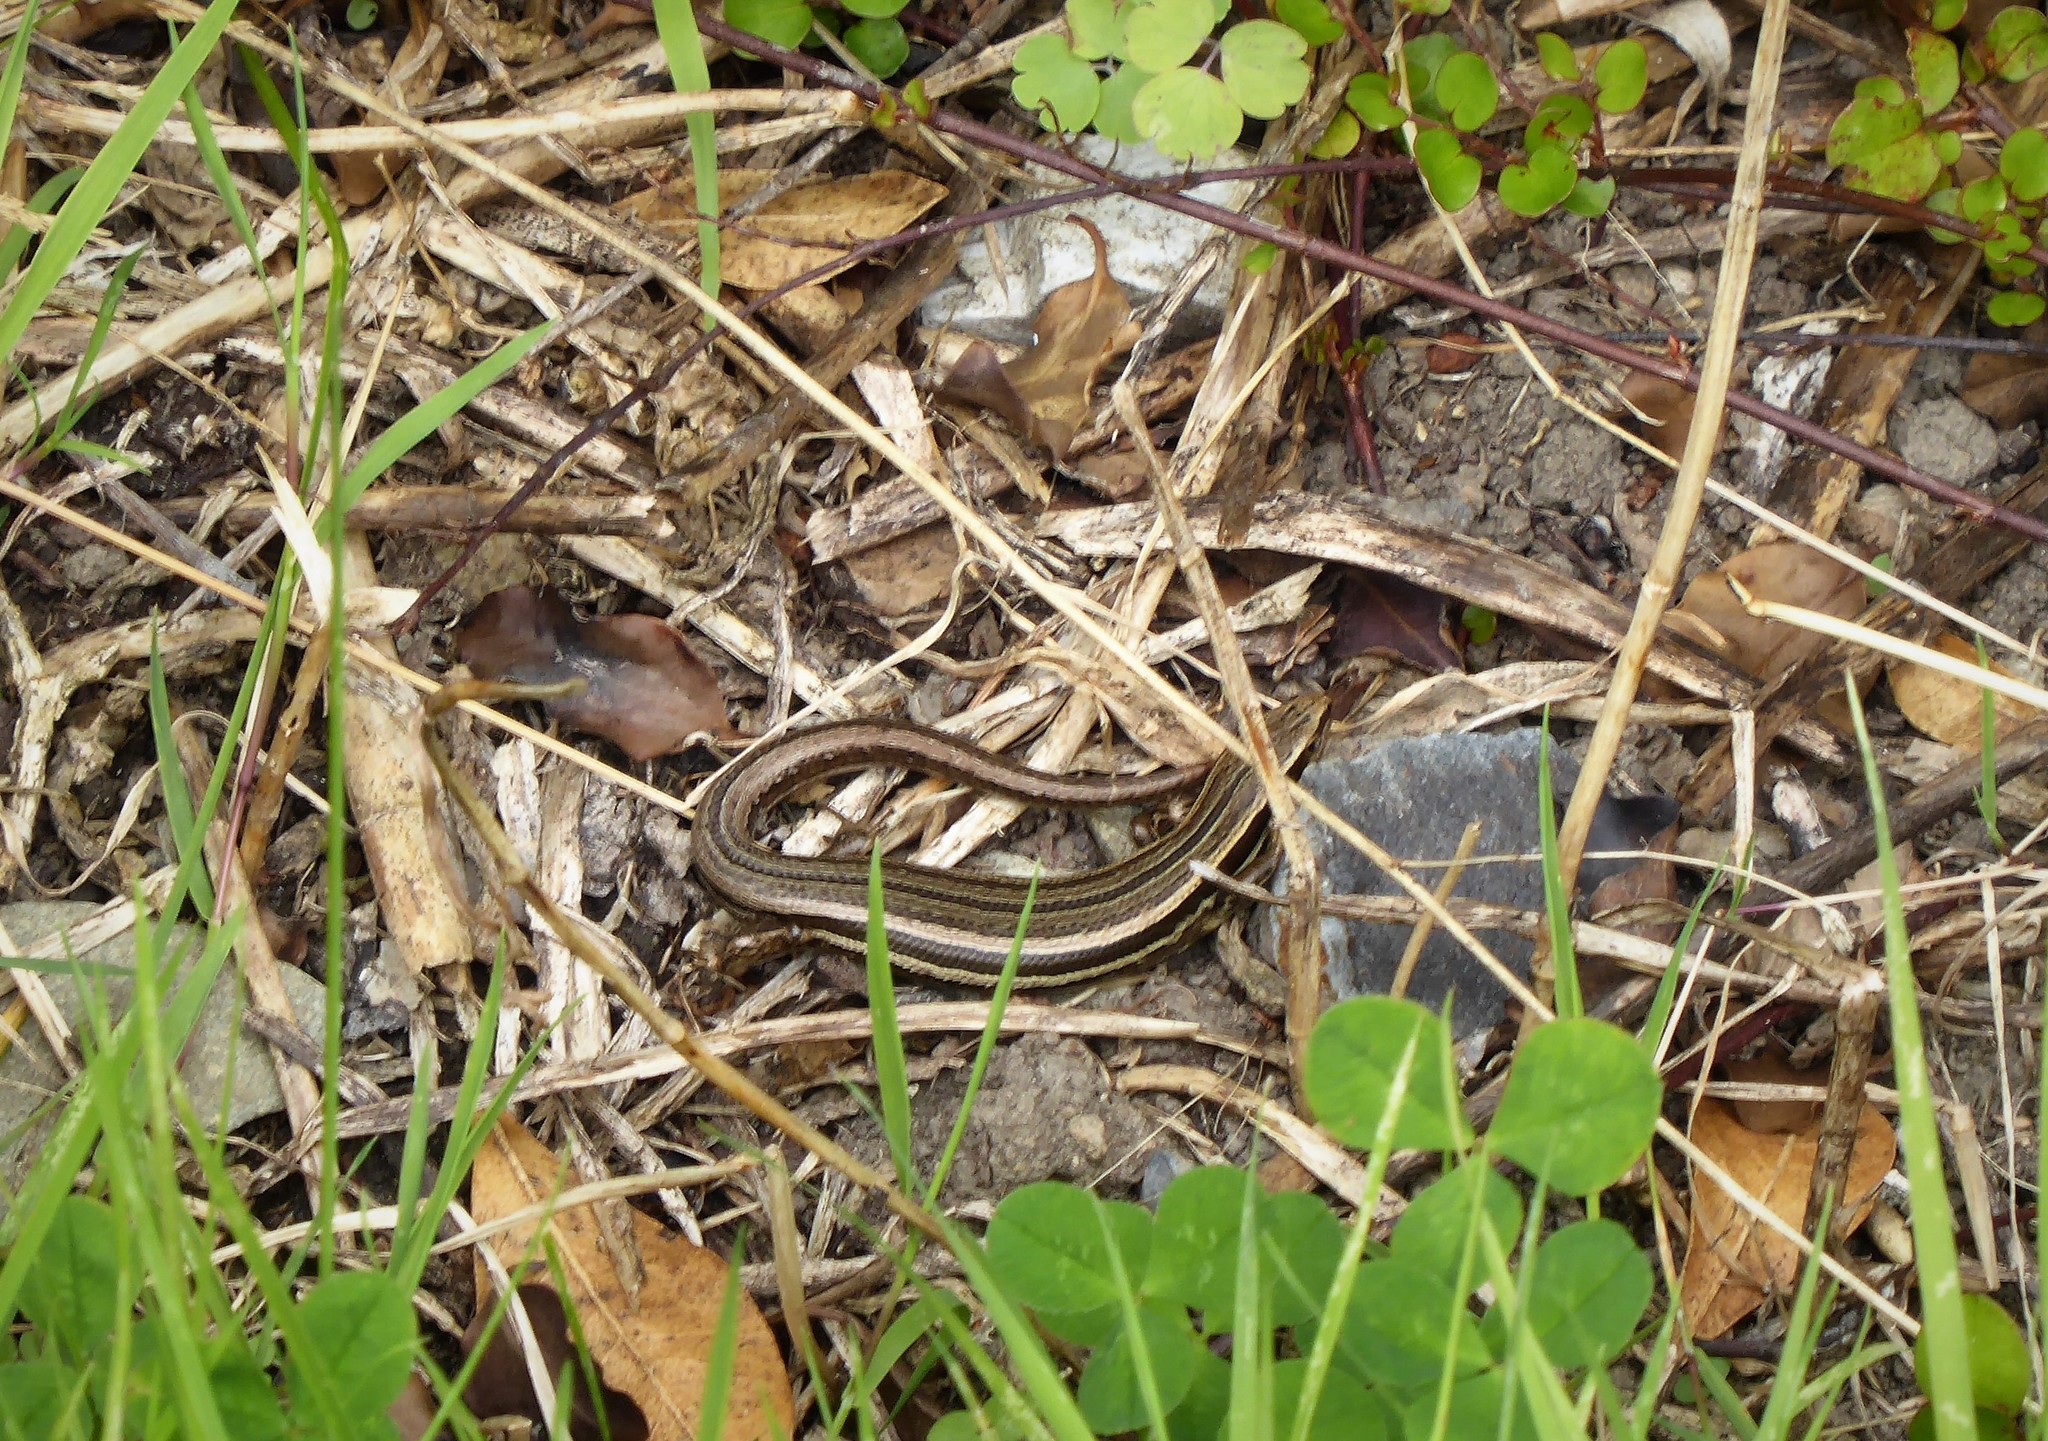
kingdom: Animalia
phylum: Chordata
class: Squamata
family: Scincidae
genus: Oligosoma
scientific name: Oligosoma polychroma
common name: Common new zealand skink
